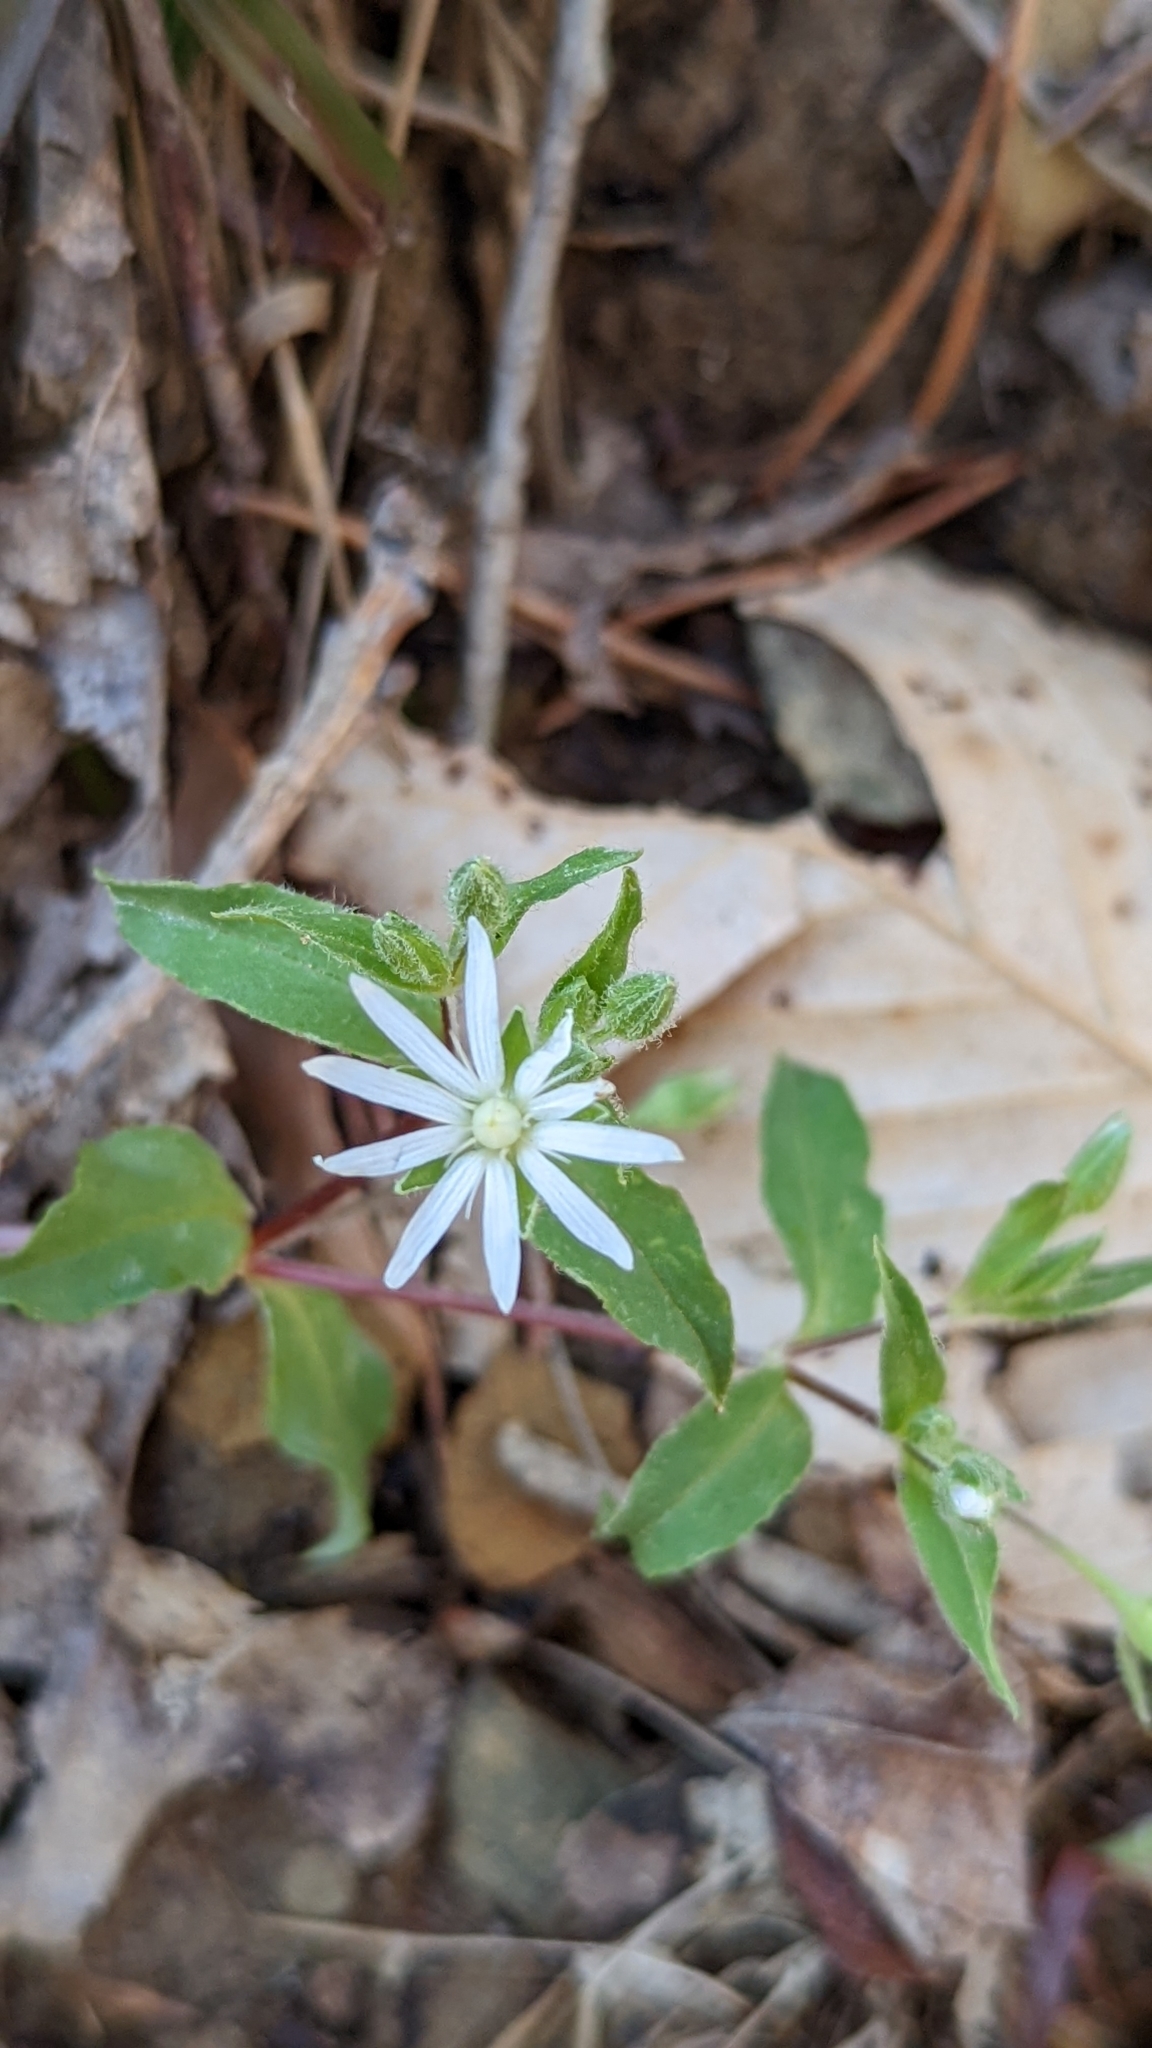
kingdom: Plantae
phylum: Tracheophyta
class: Magnoliopsida
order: Caryophyllales
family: Caryophyllaceae
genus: Stellaria
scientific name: Stellaria pubera
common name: Star chickweed
